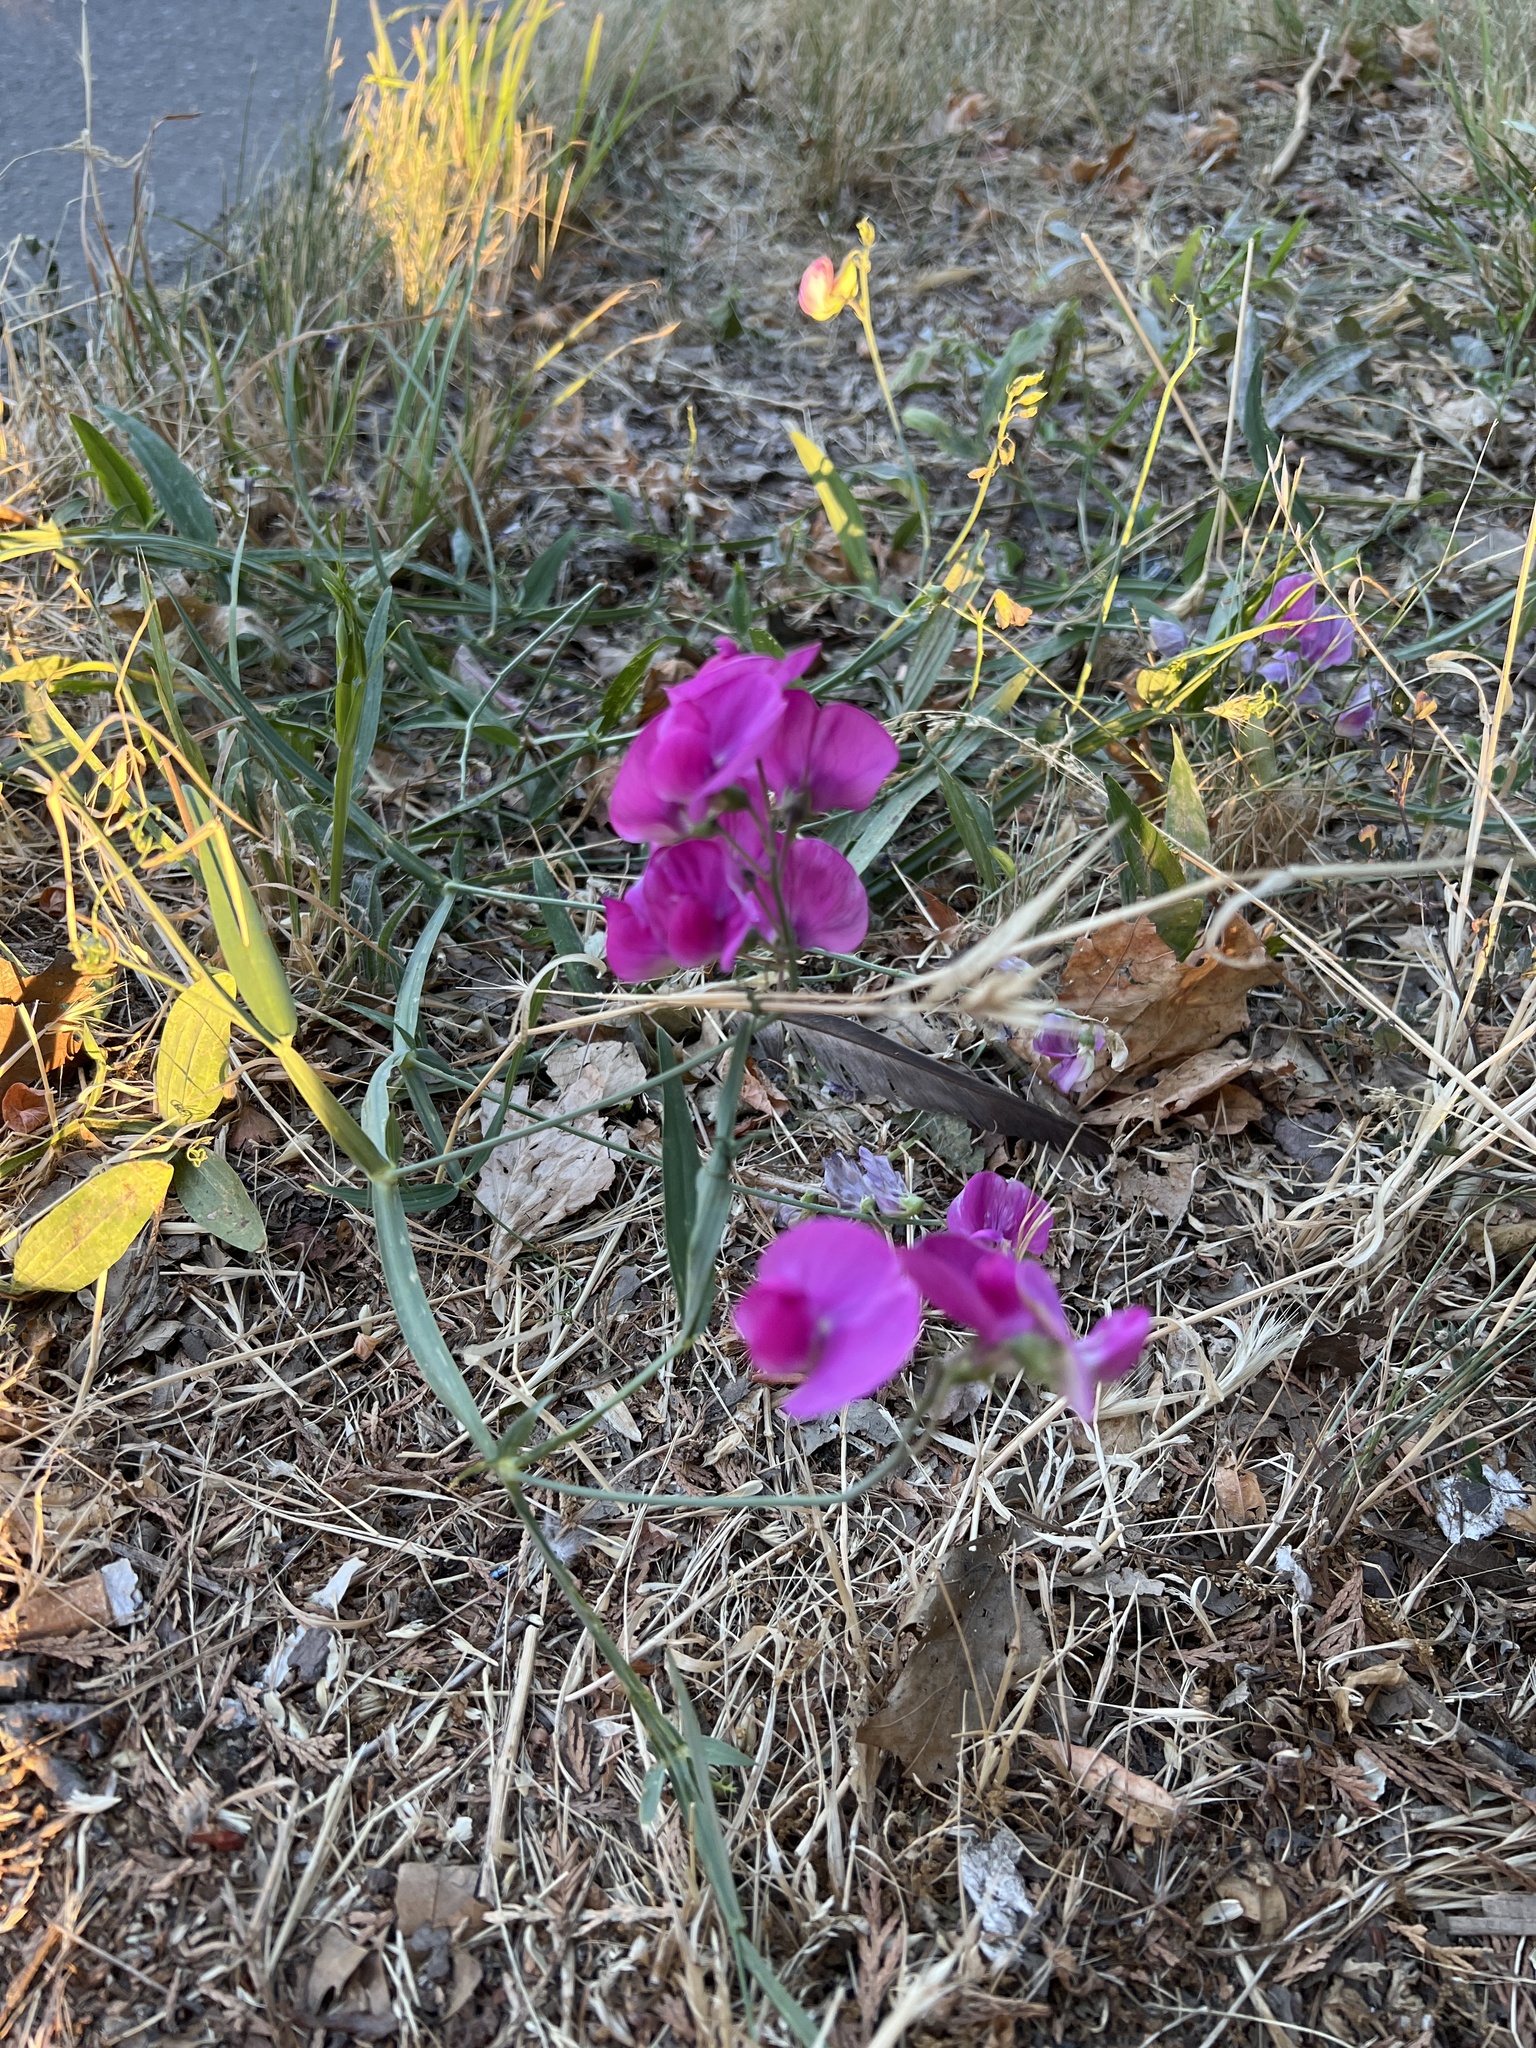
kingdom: Plantae
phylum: Tracheophyta
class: Magnoliopsida
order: Fabales
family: Fabaceae
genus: Lathyrus
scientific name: Lathyrus latifolius
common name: Perennial pea
